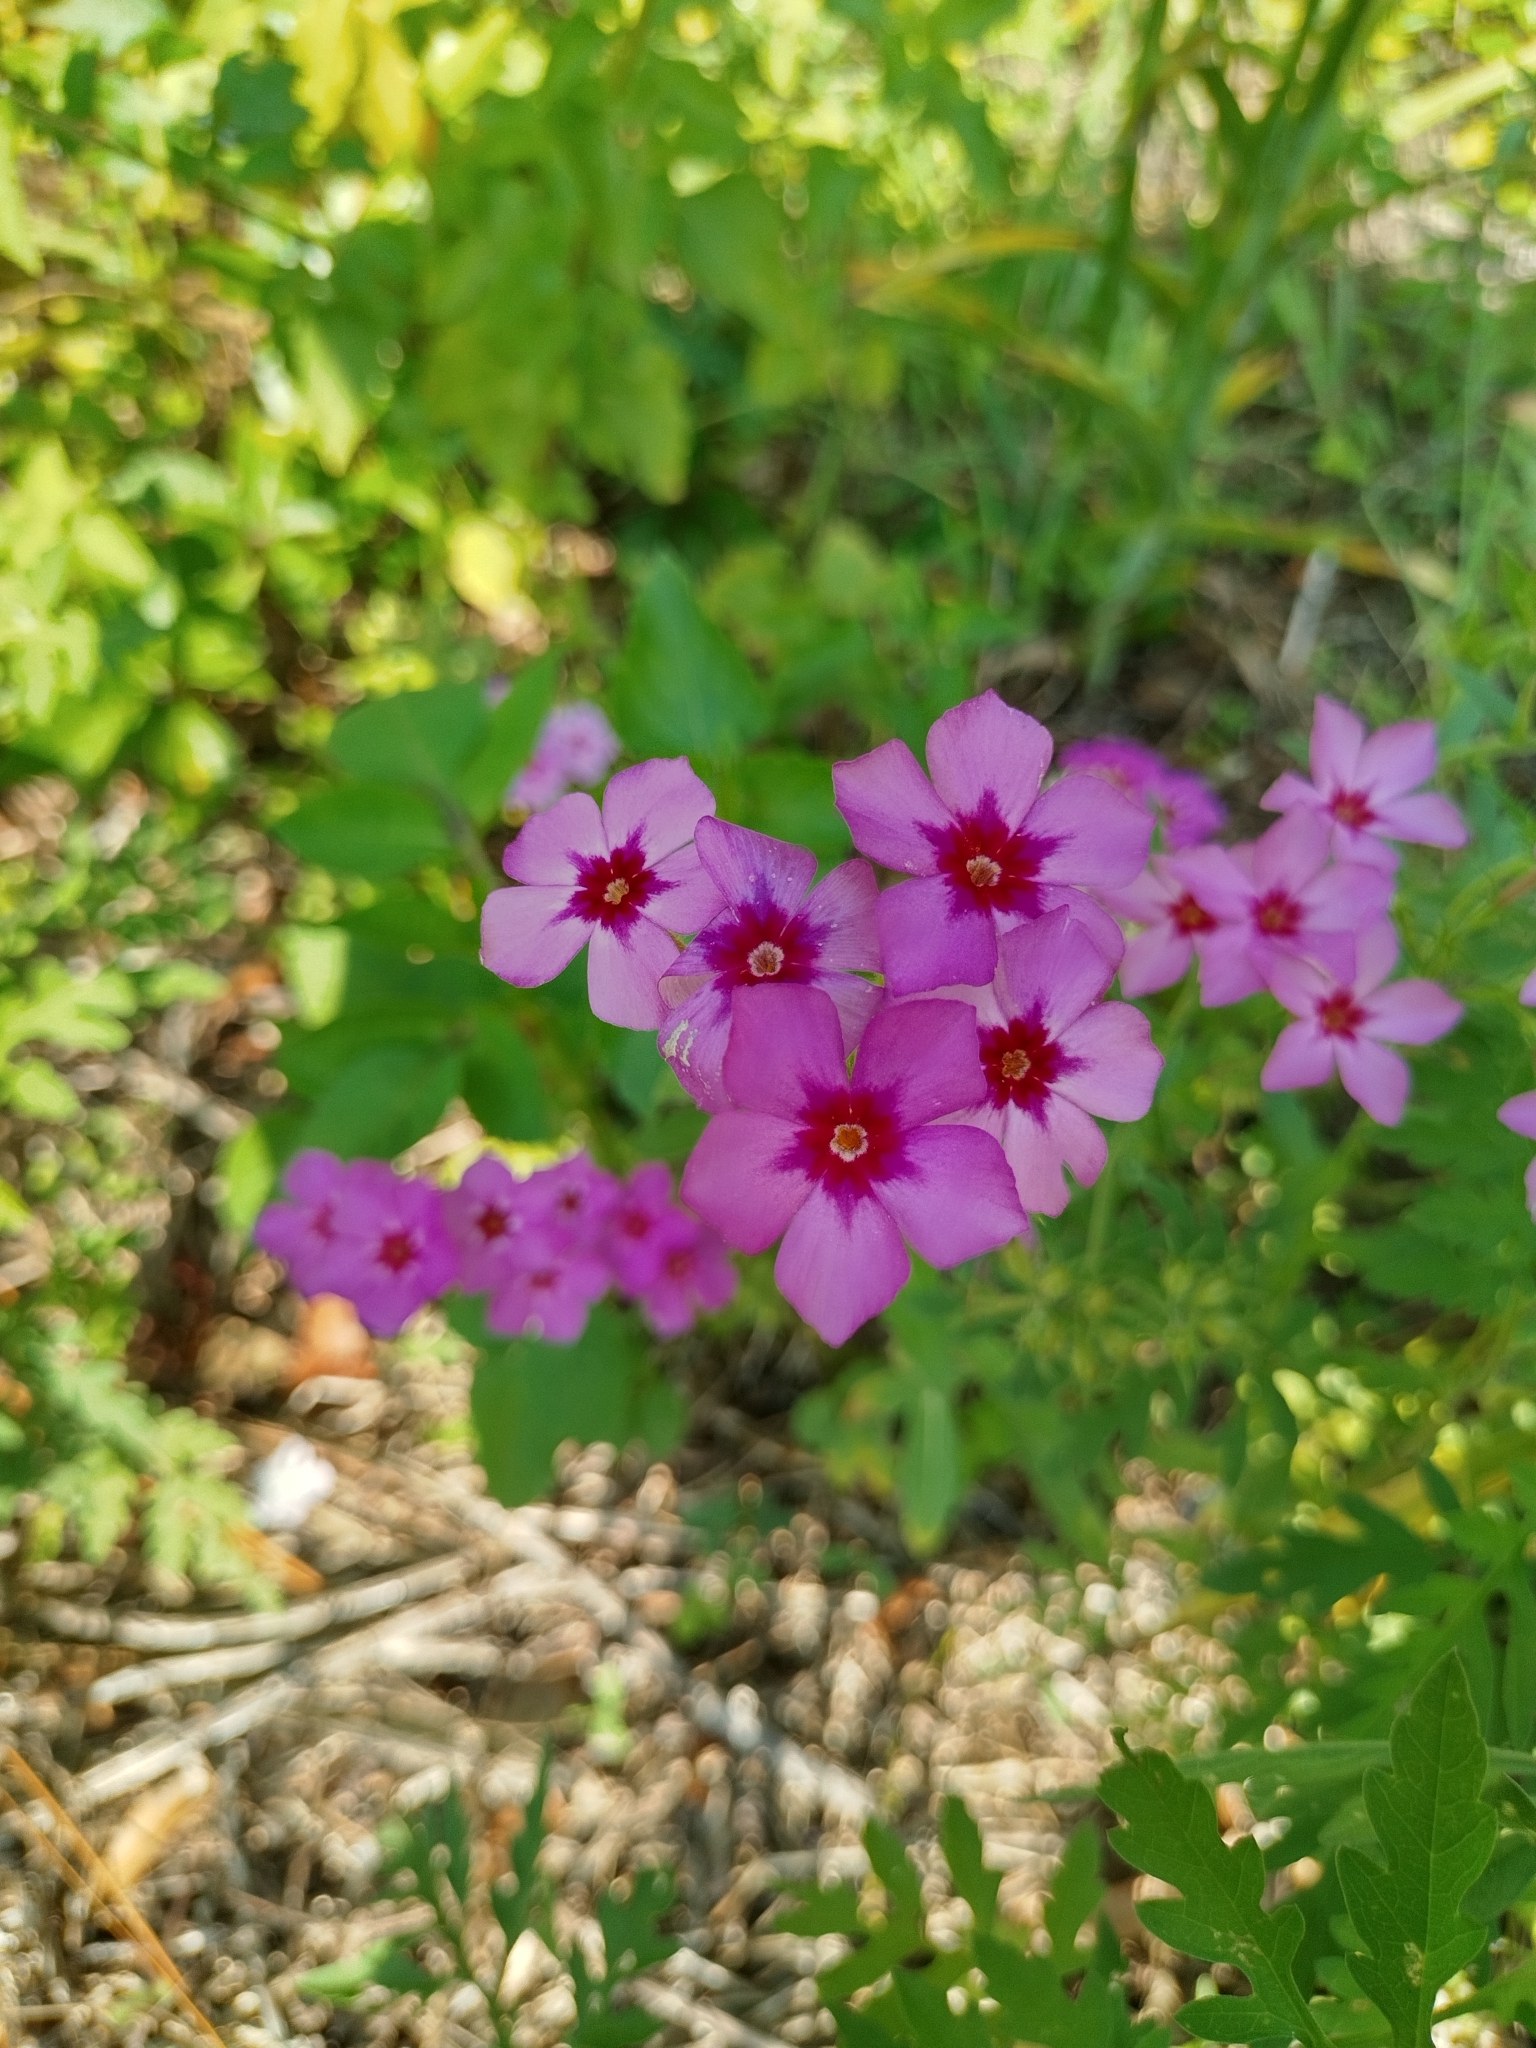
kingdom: Plantae
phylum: Tracheophyta
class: Magnoliopsida
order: Ericales
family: Polemoniaceae
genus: Phlox
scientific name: Phlox drummondii
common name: Drummond's phlox
